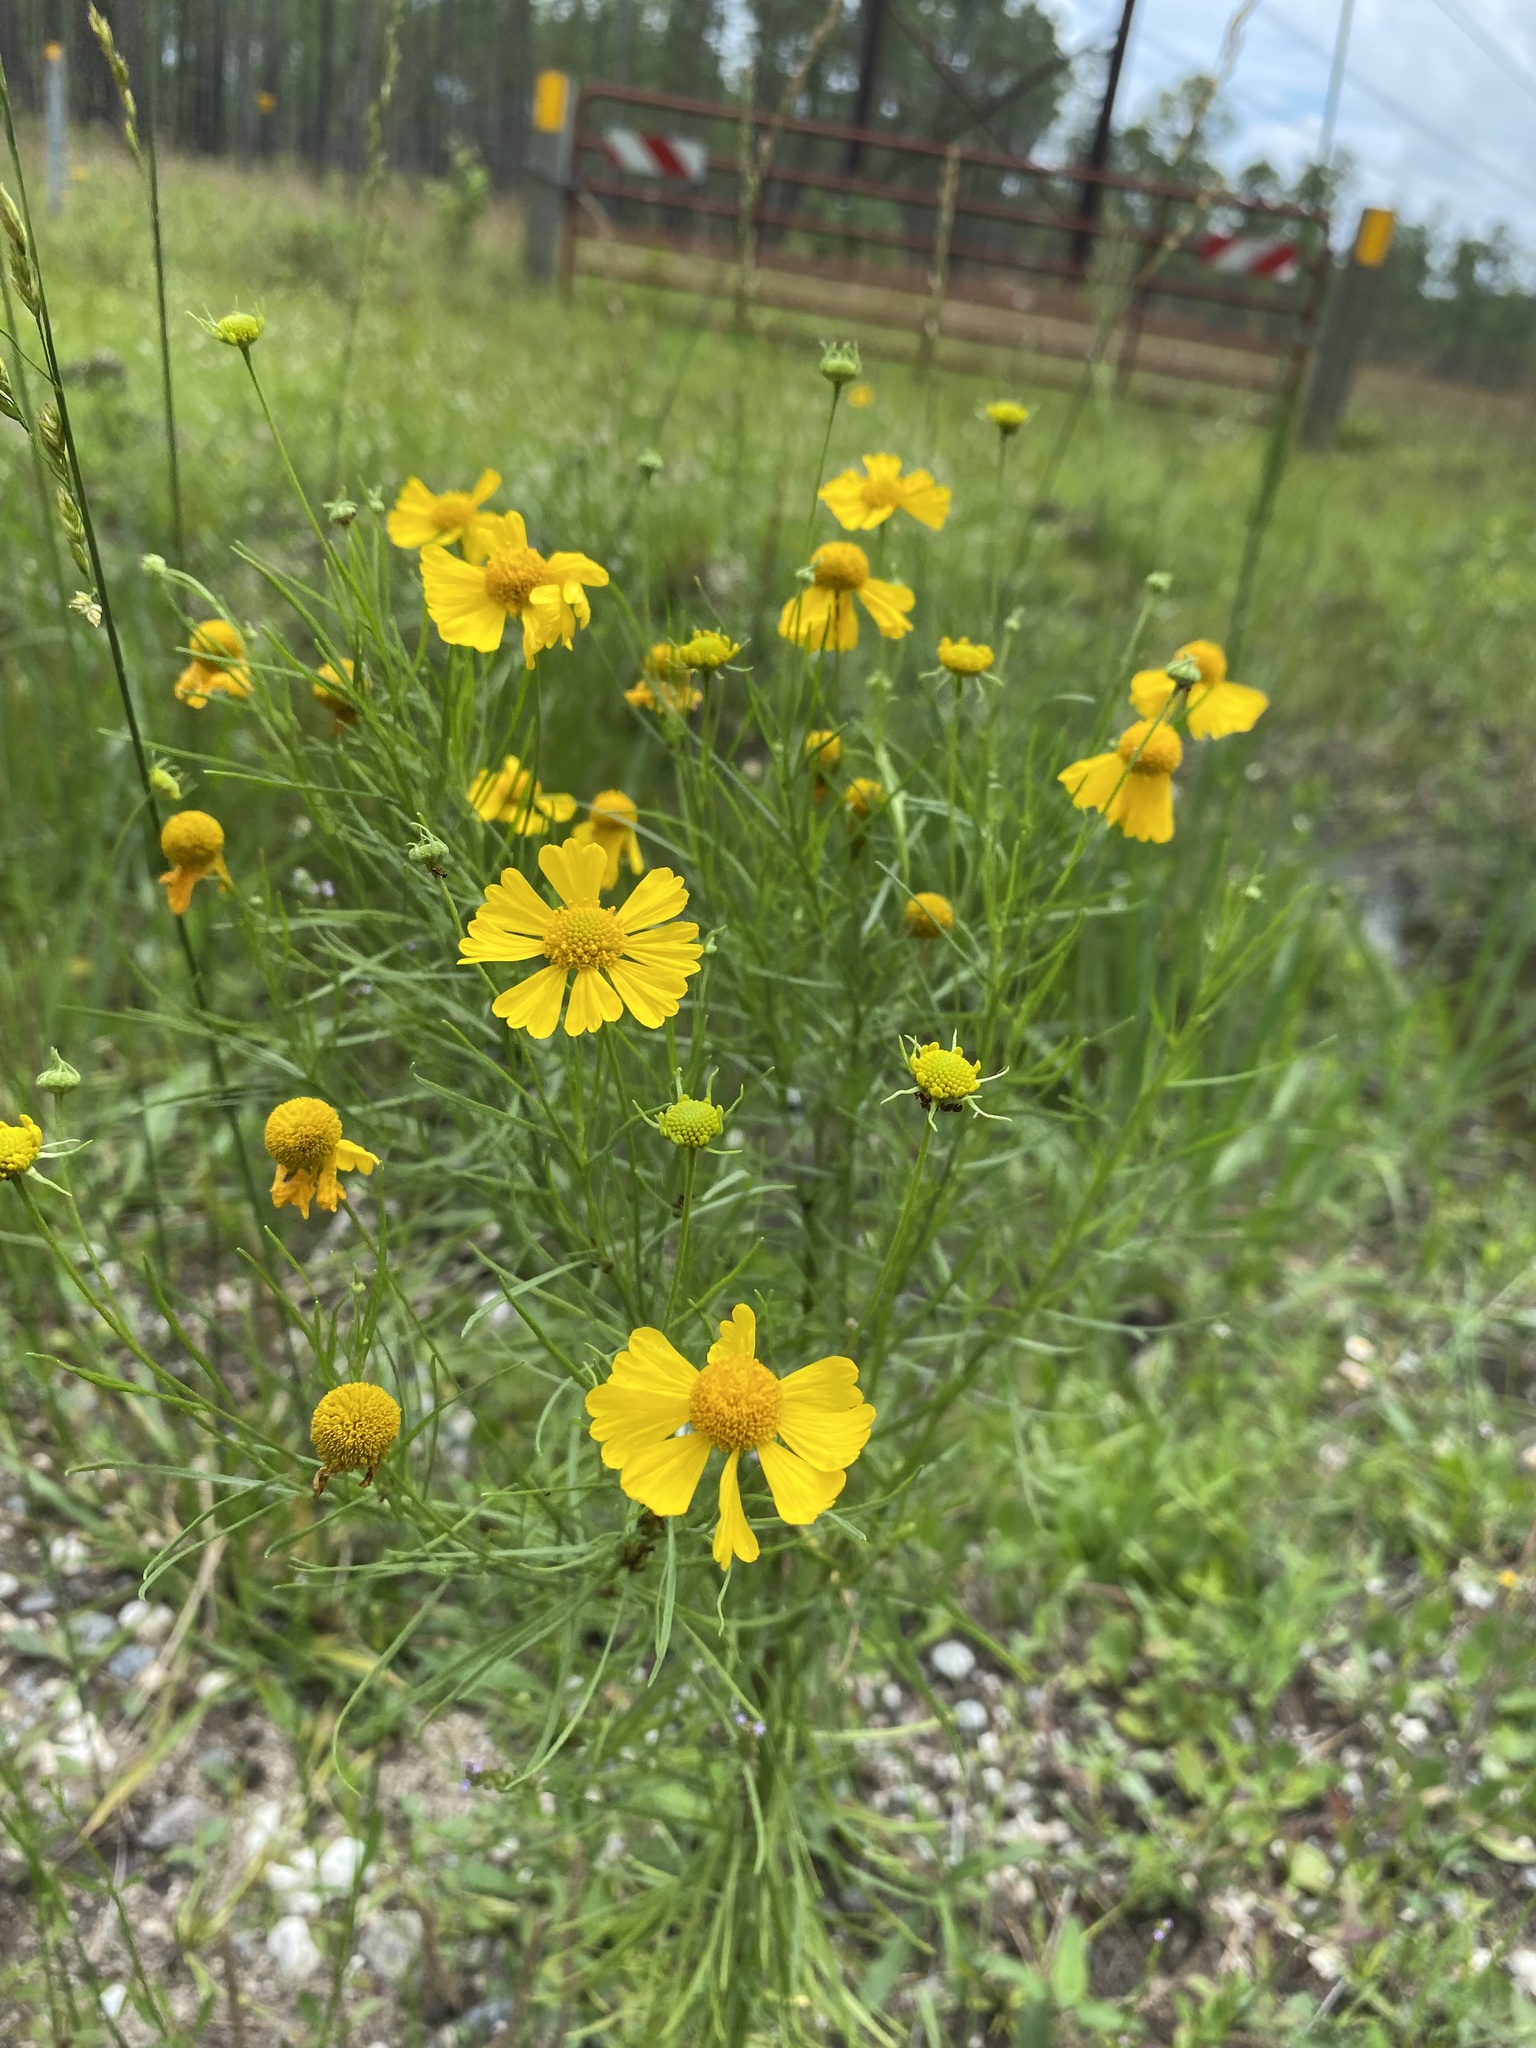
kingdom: Plantae
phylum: Tracheophyta
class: Magnoliopsida
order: Asterales
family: Asteraceae
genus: Helenium
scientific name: Helenium amarum
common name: Bitter sneezeweed
